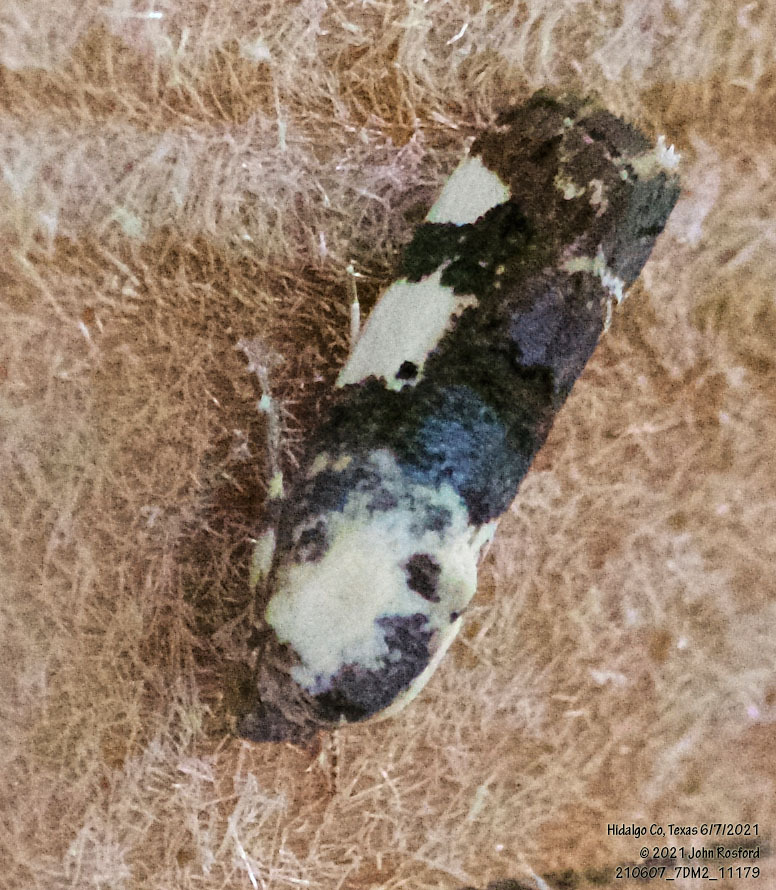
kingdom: Animalia
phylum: Arthropoda
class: Insecta
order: Lepidoptera
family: Noctuidae
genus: Acontia
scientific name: Acontia aprica
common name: Nun
